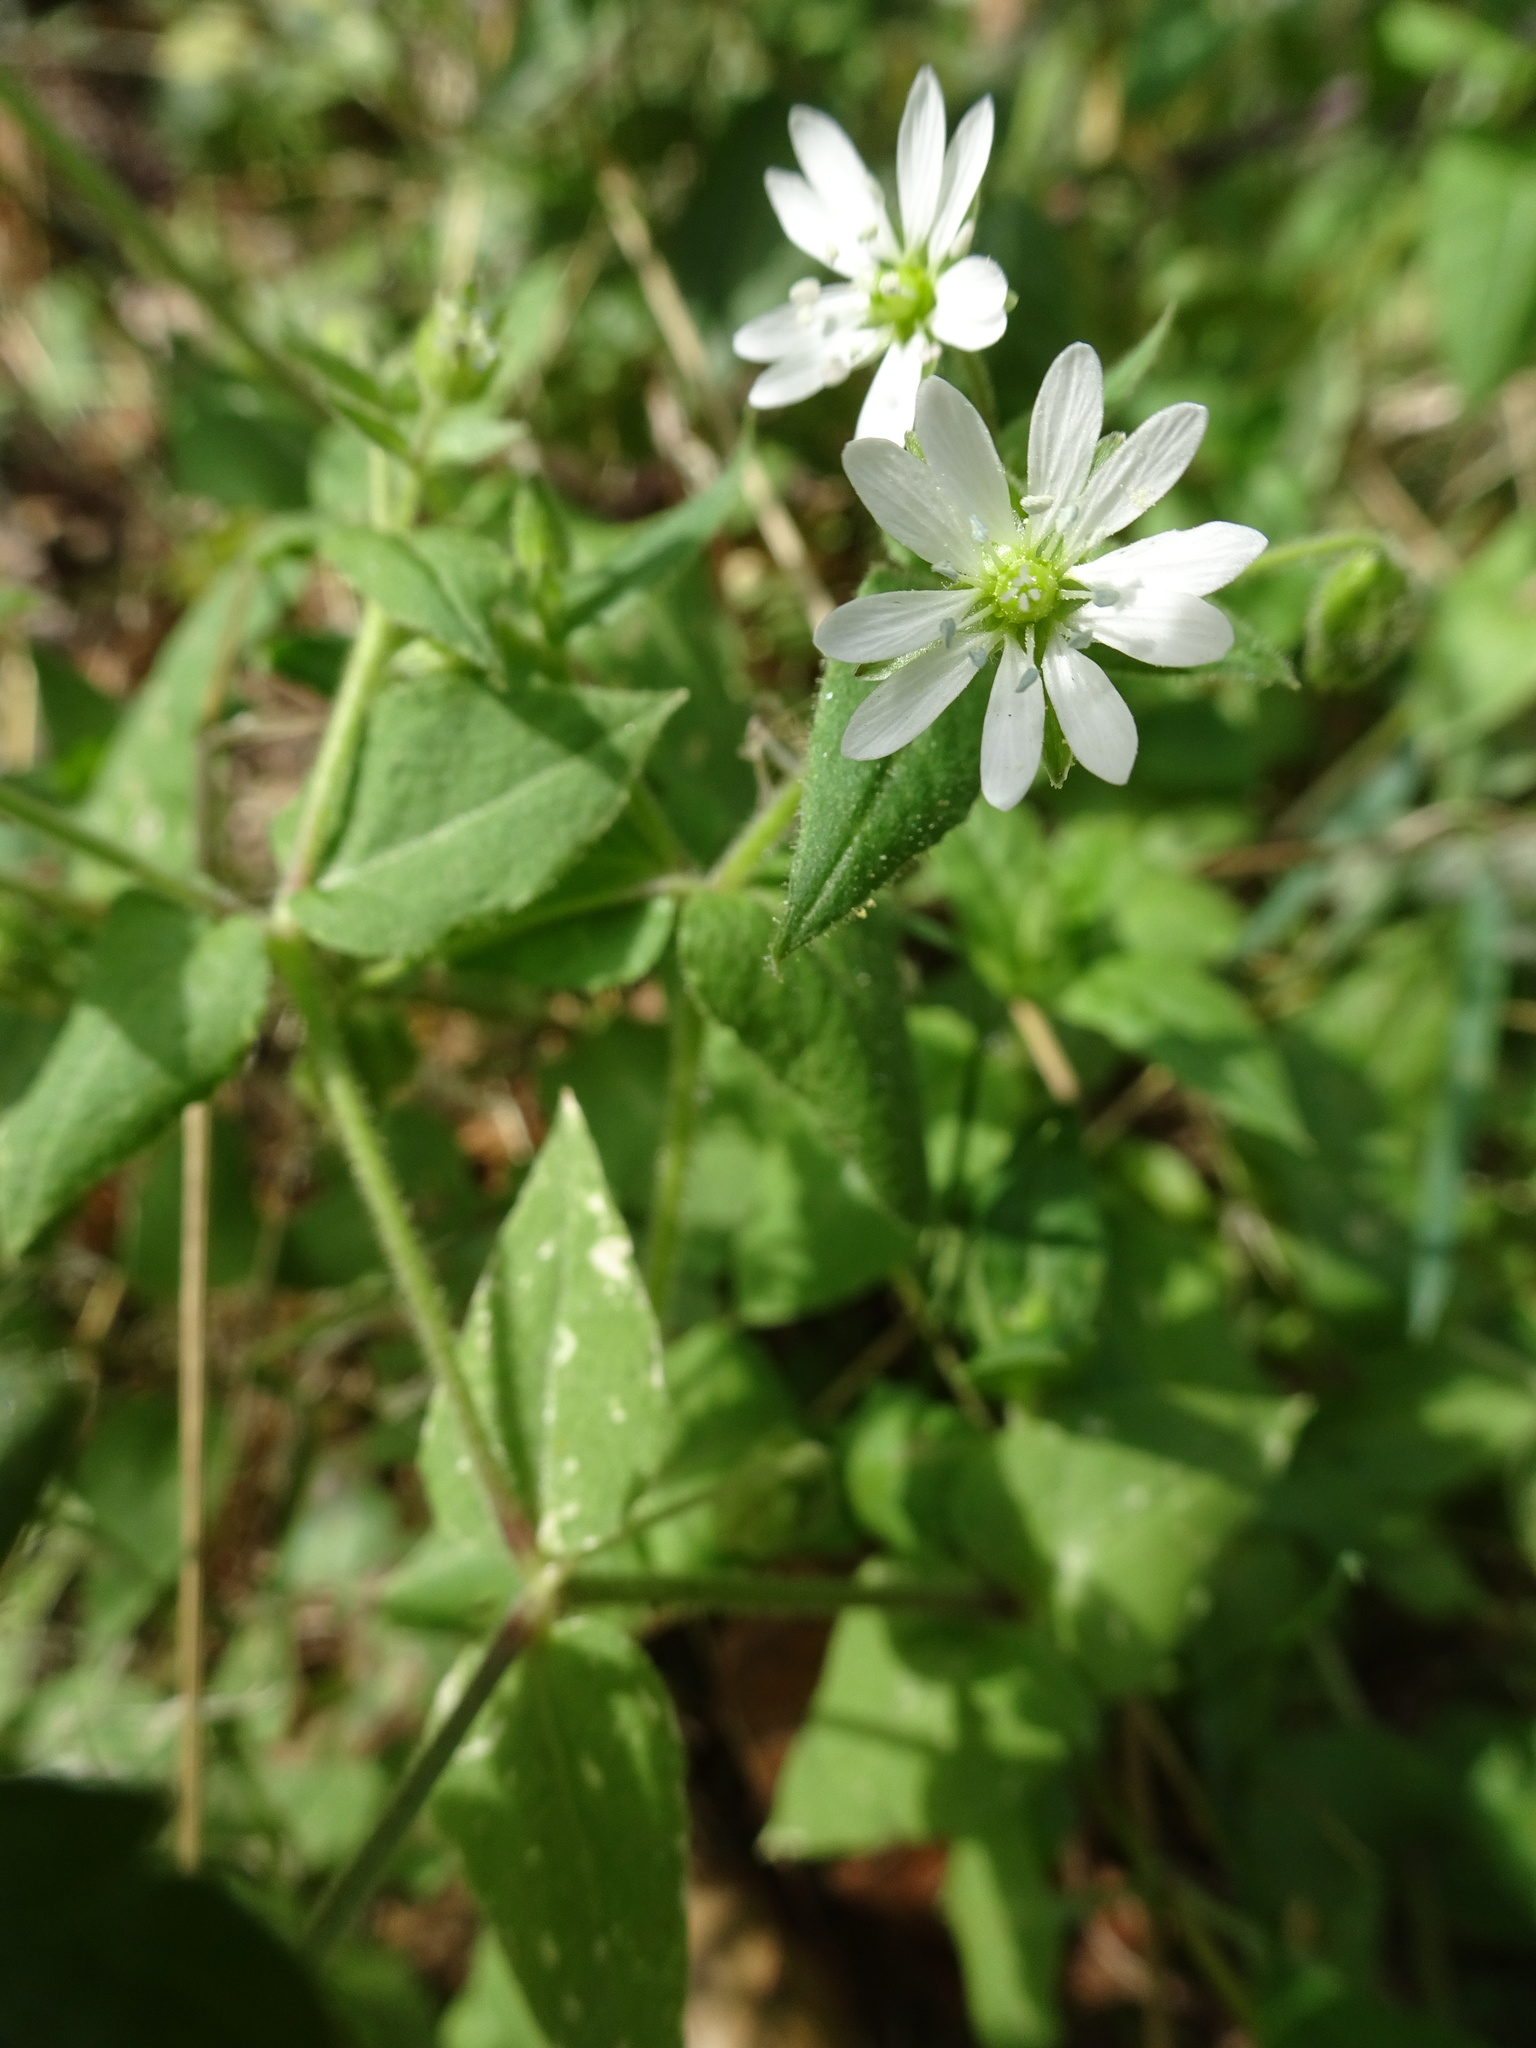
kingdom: Plantae
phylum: Tracheophyta
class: Magnoliopsida
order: Caryophyllales
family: Caryophyllaceae
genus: Stellaria
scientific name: Stellaria aquatica
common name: Water chickweed
